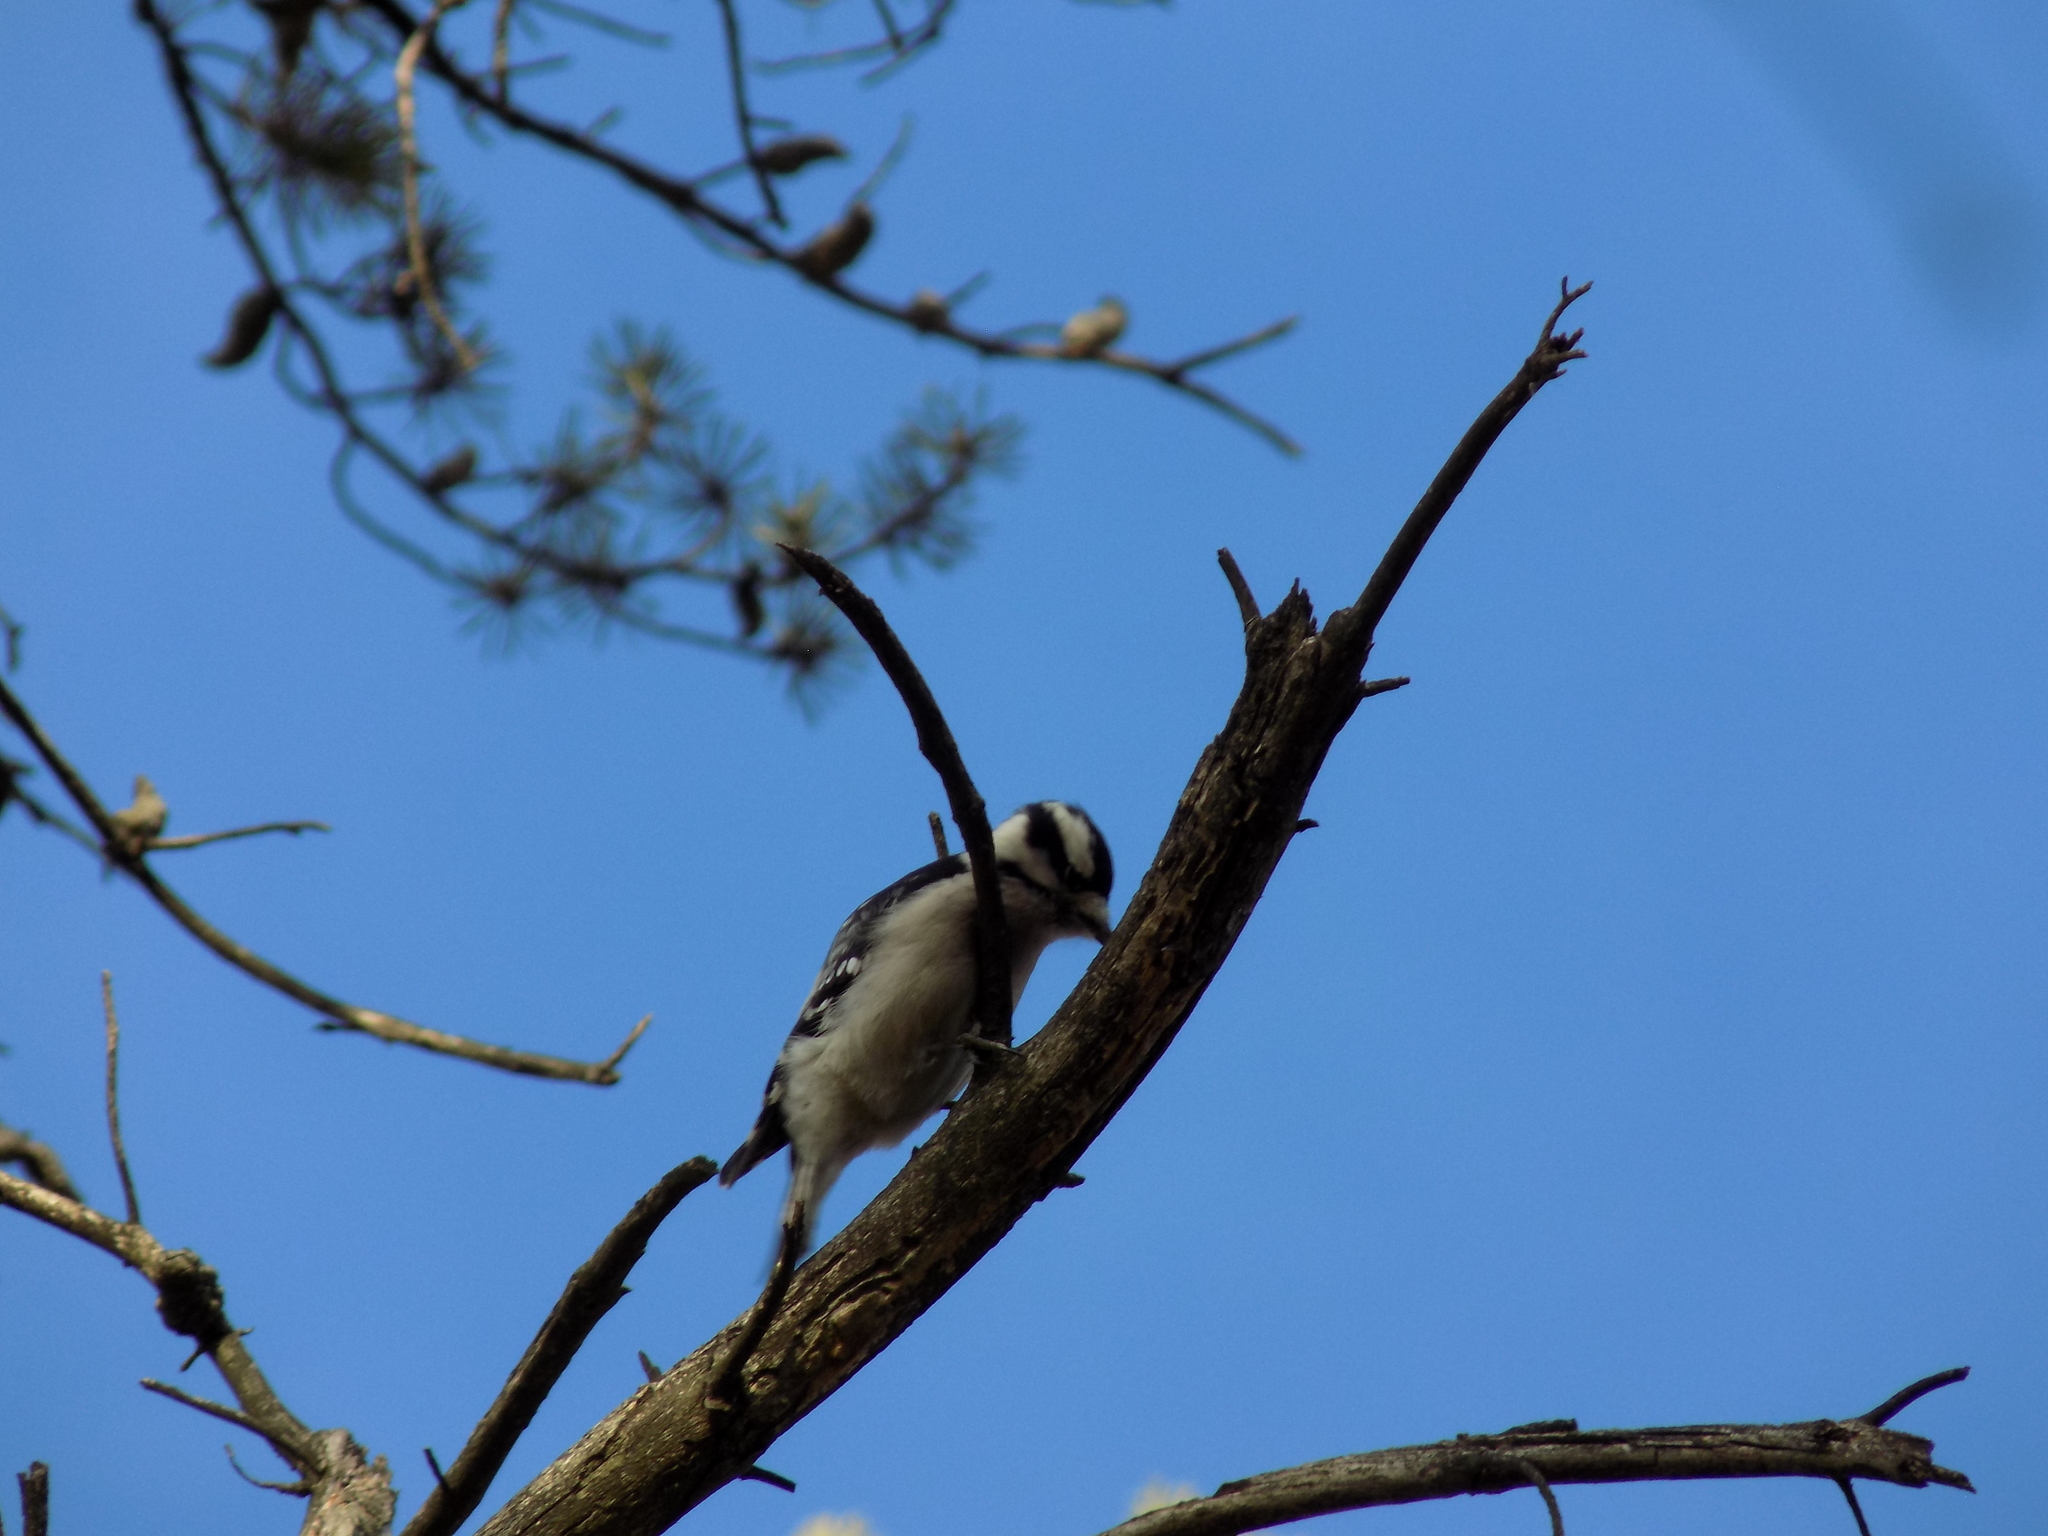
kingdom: Animalia
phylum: Chordata
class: Aves
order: Piciformes
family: Picidae
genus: Dryobates
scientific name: Dryobates pubescens
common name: Downy woodpecker
